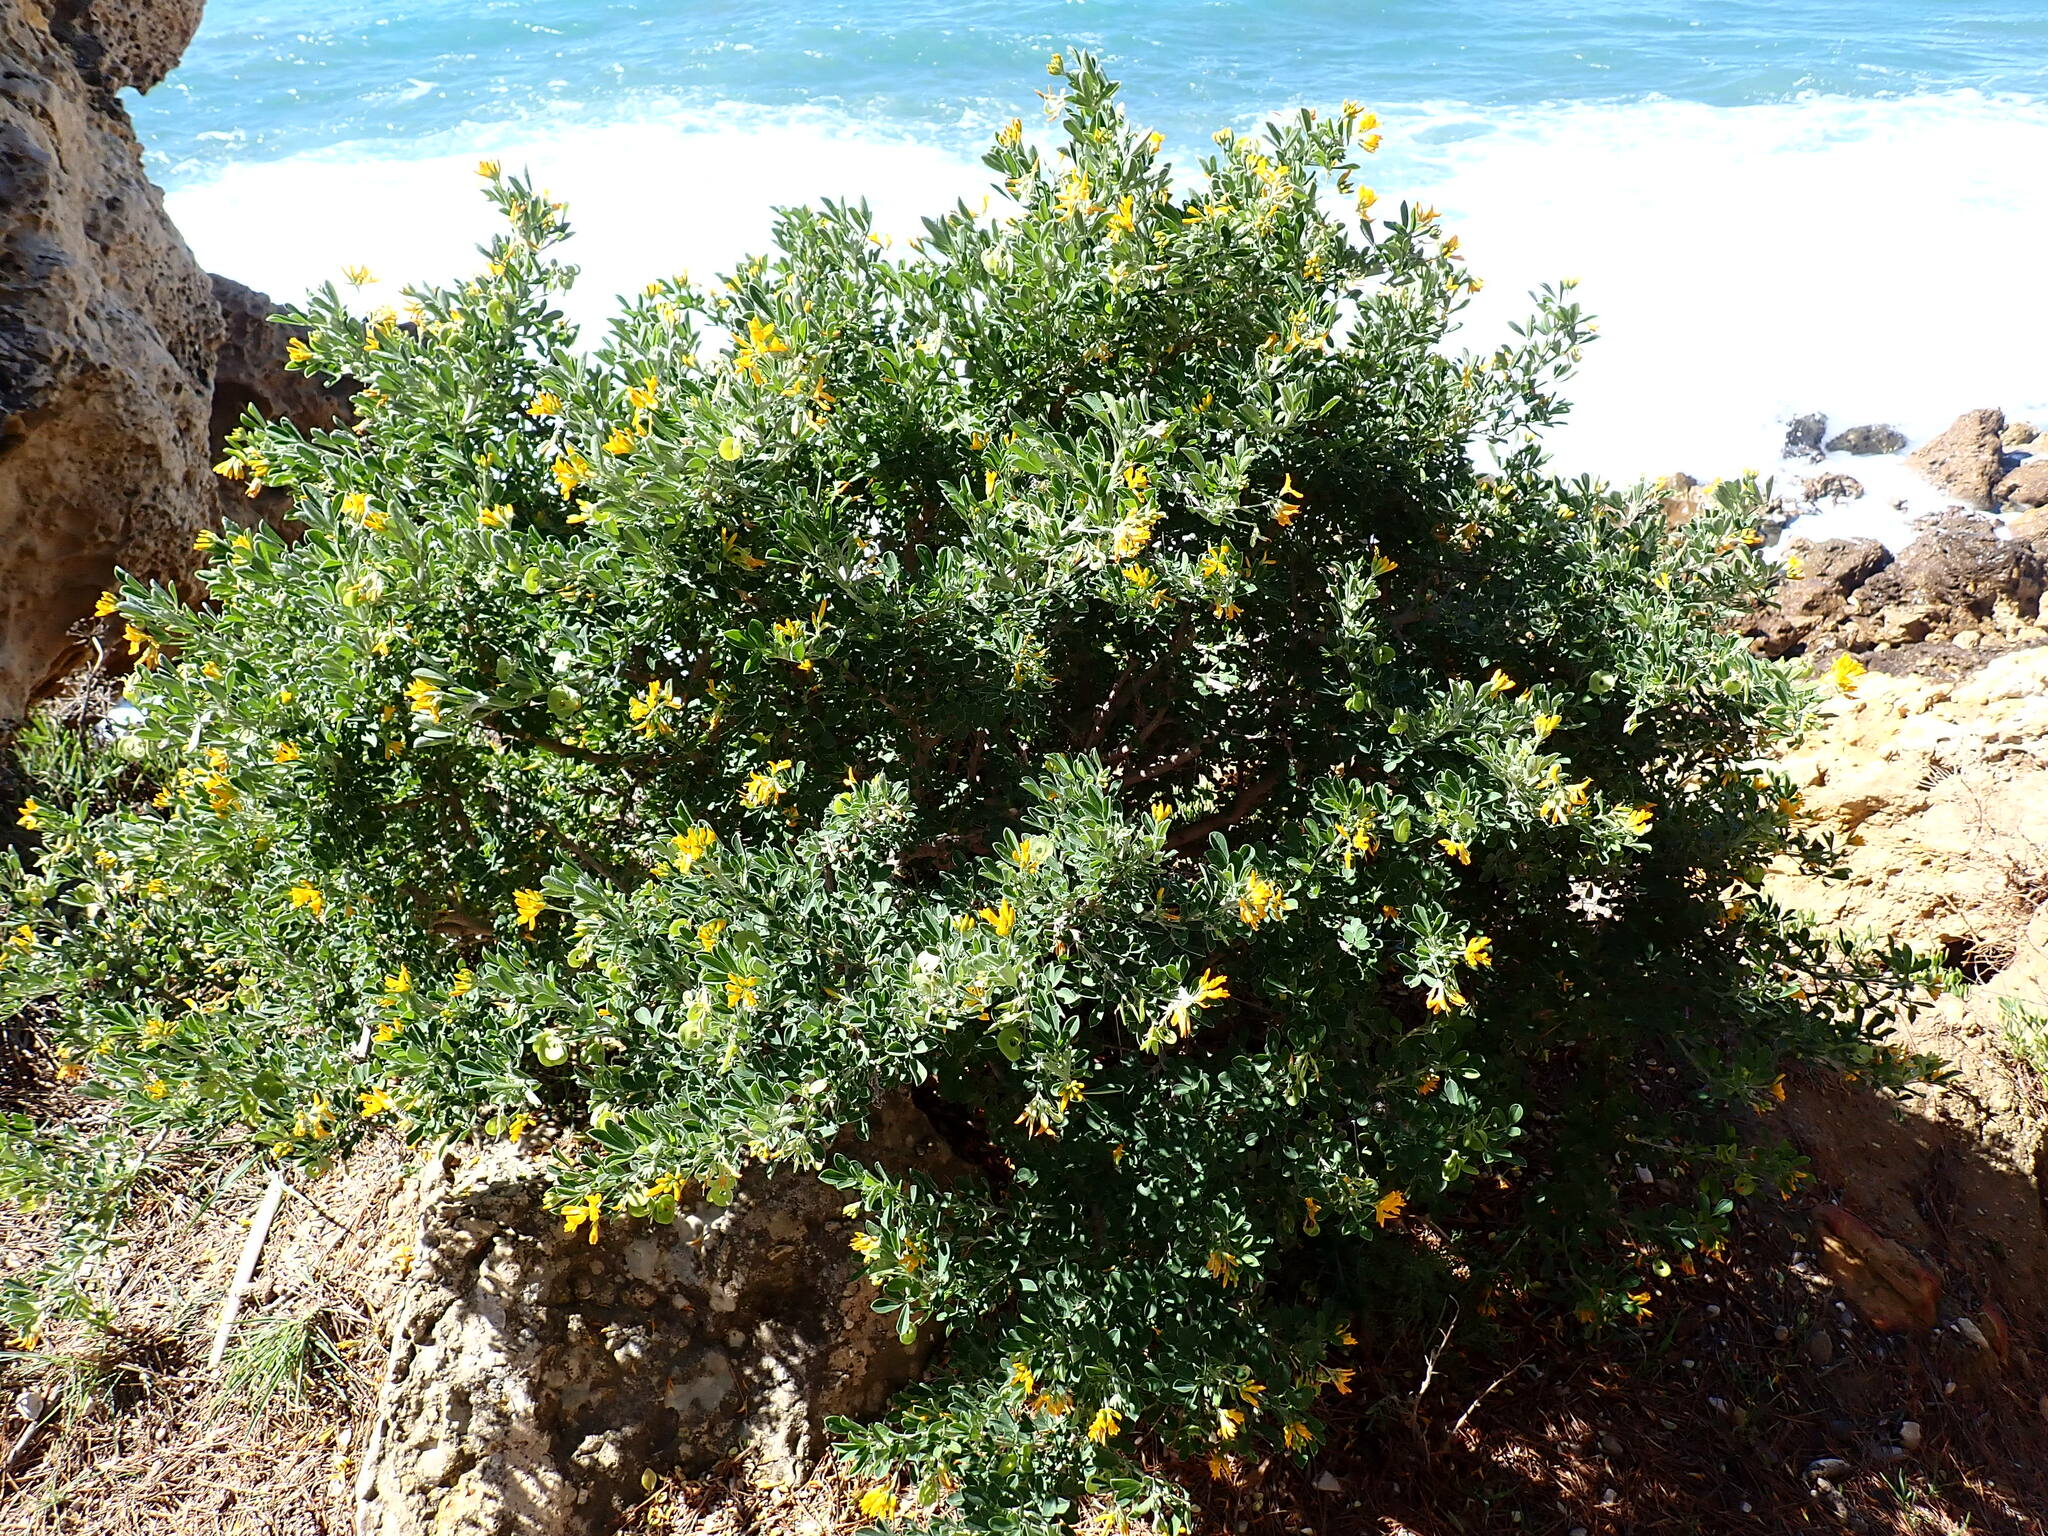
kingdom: Plantae
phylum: Tracheophyta
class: Magnoliopsida
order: Fabales
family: Fabaceae
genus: Medicago
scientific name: Medicago arborea
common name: Moon trefoil
